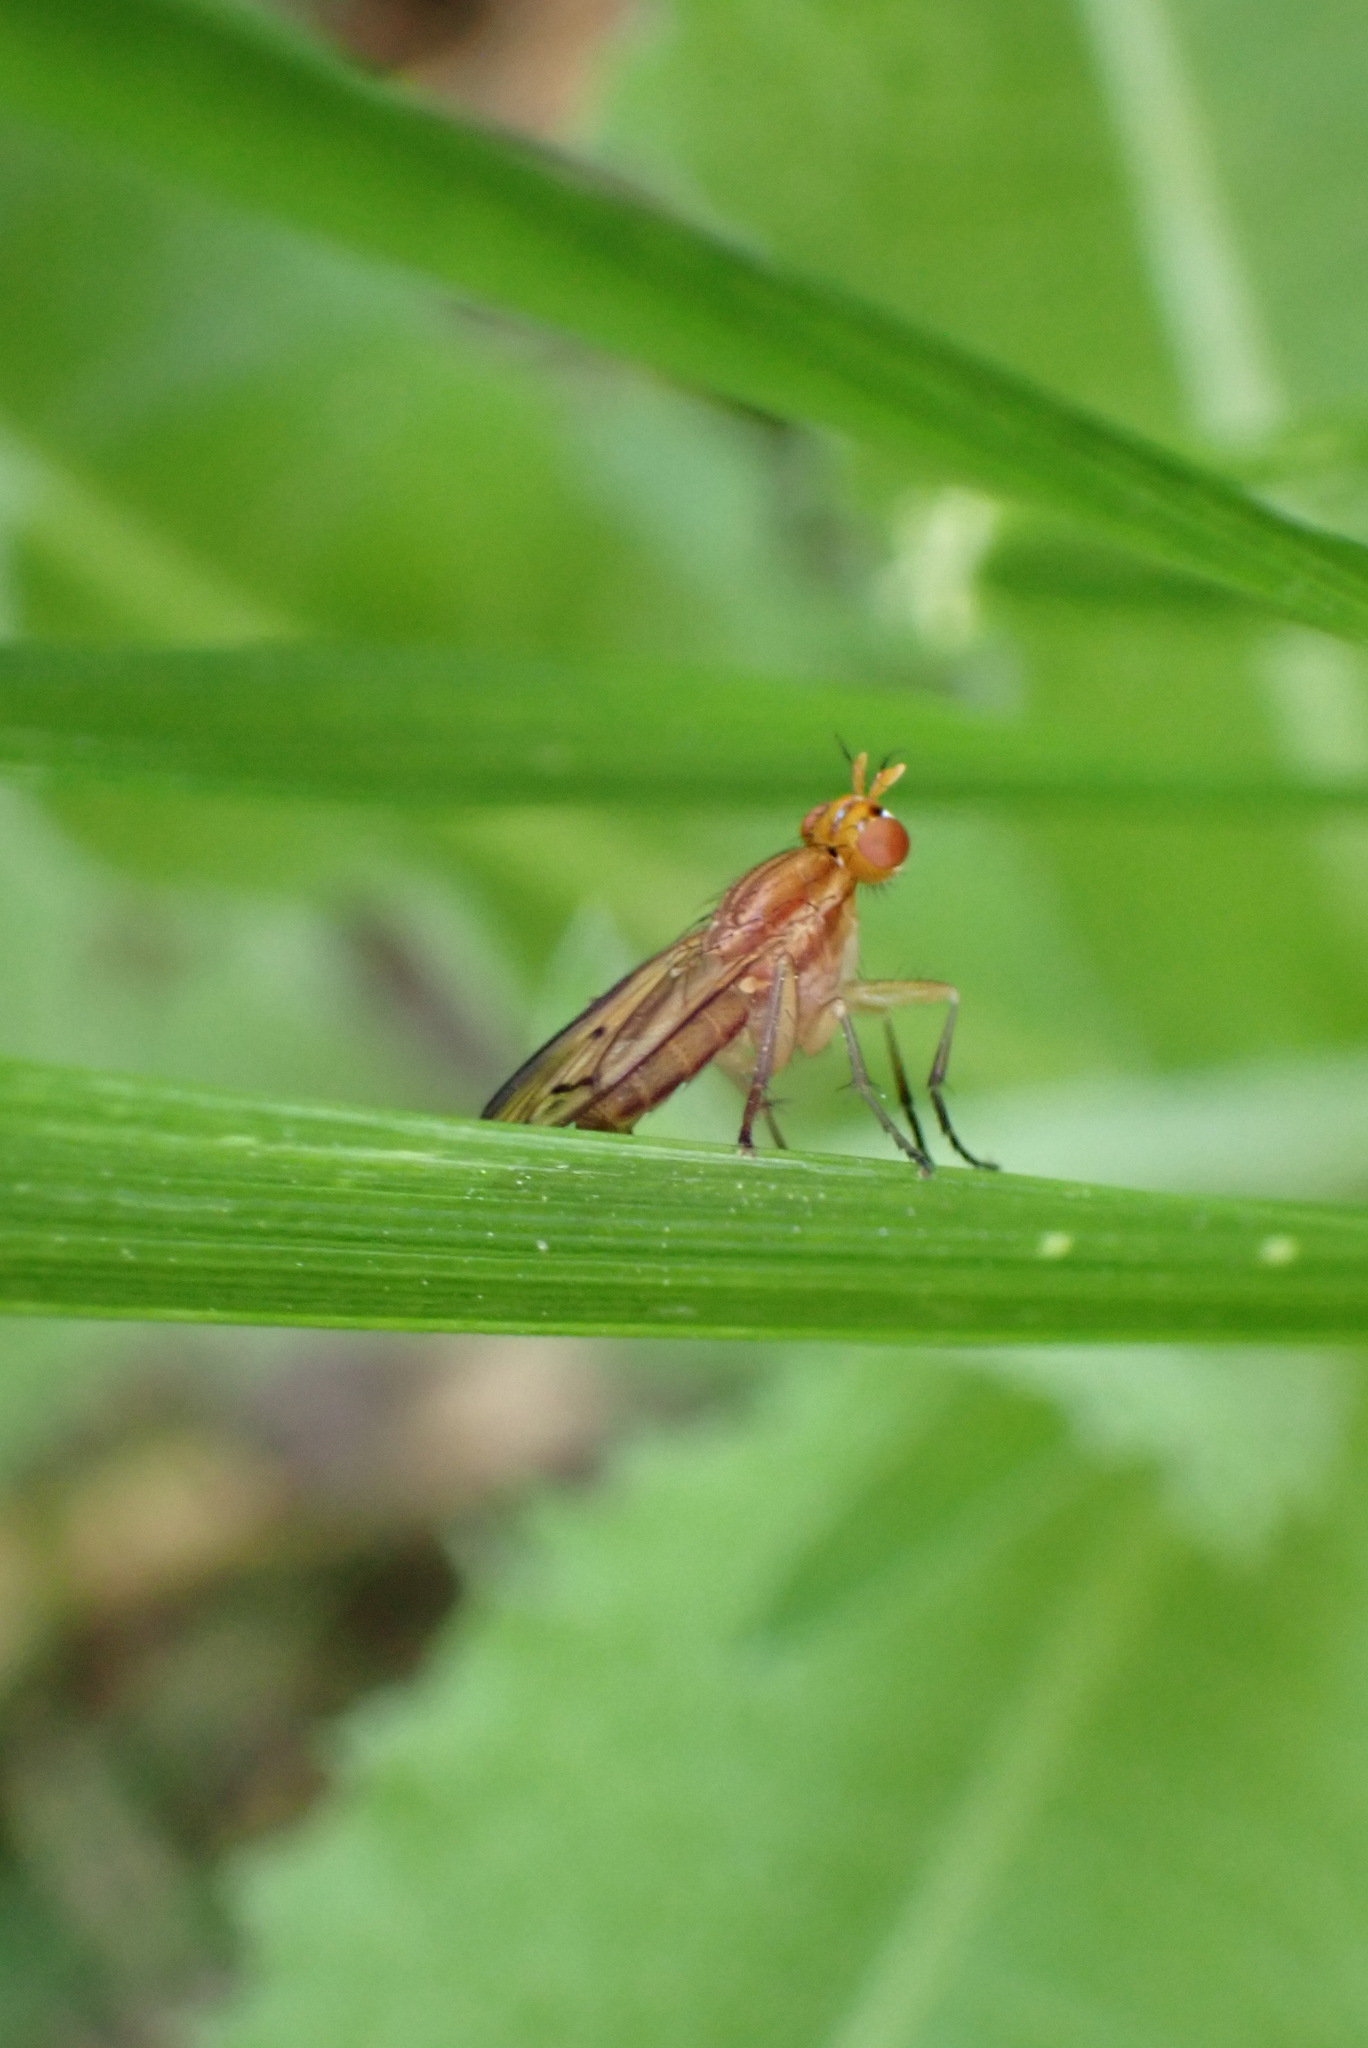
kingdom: Animalia
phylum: Arthropoda
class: Insecta
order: Diptera
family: Sciomyzidae
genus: Tetanocera
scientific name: Tetanocera plebeja
